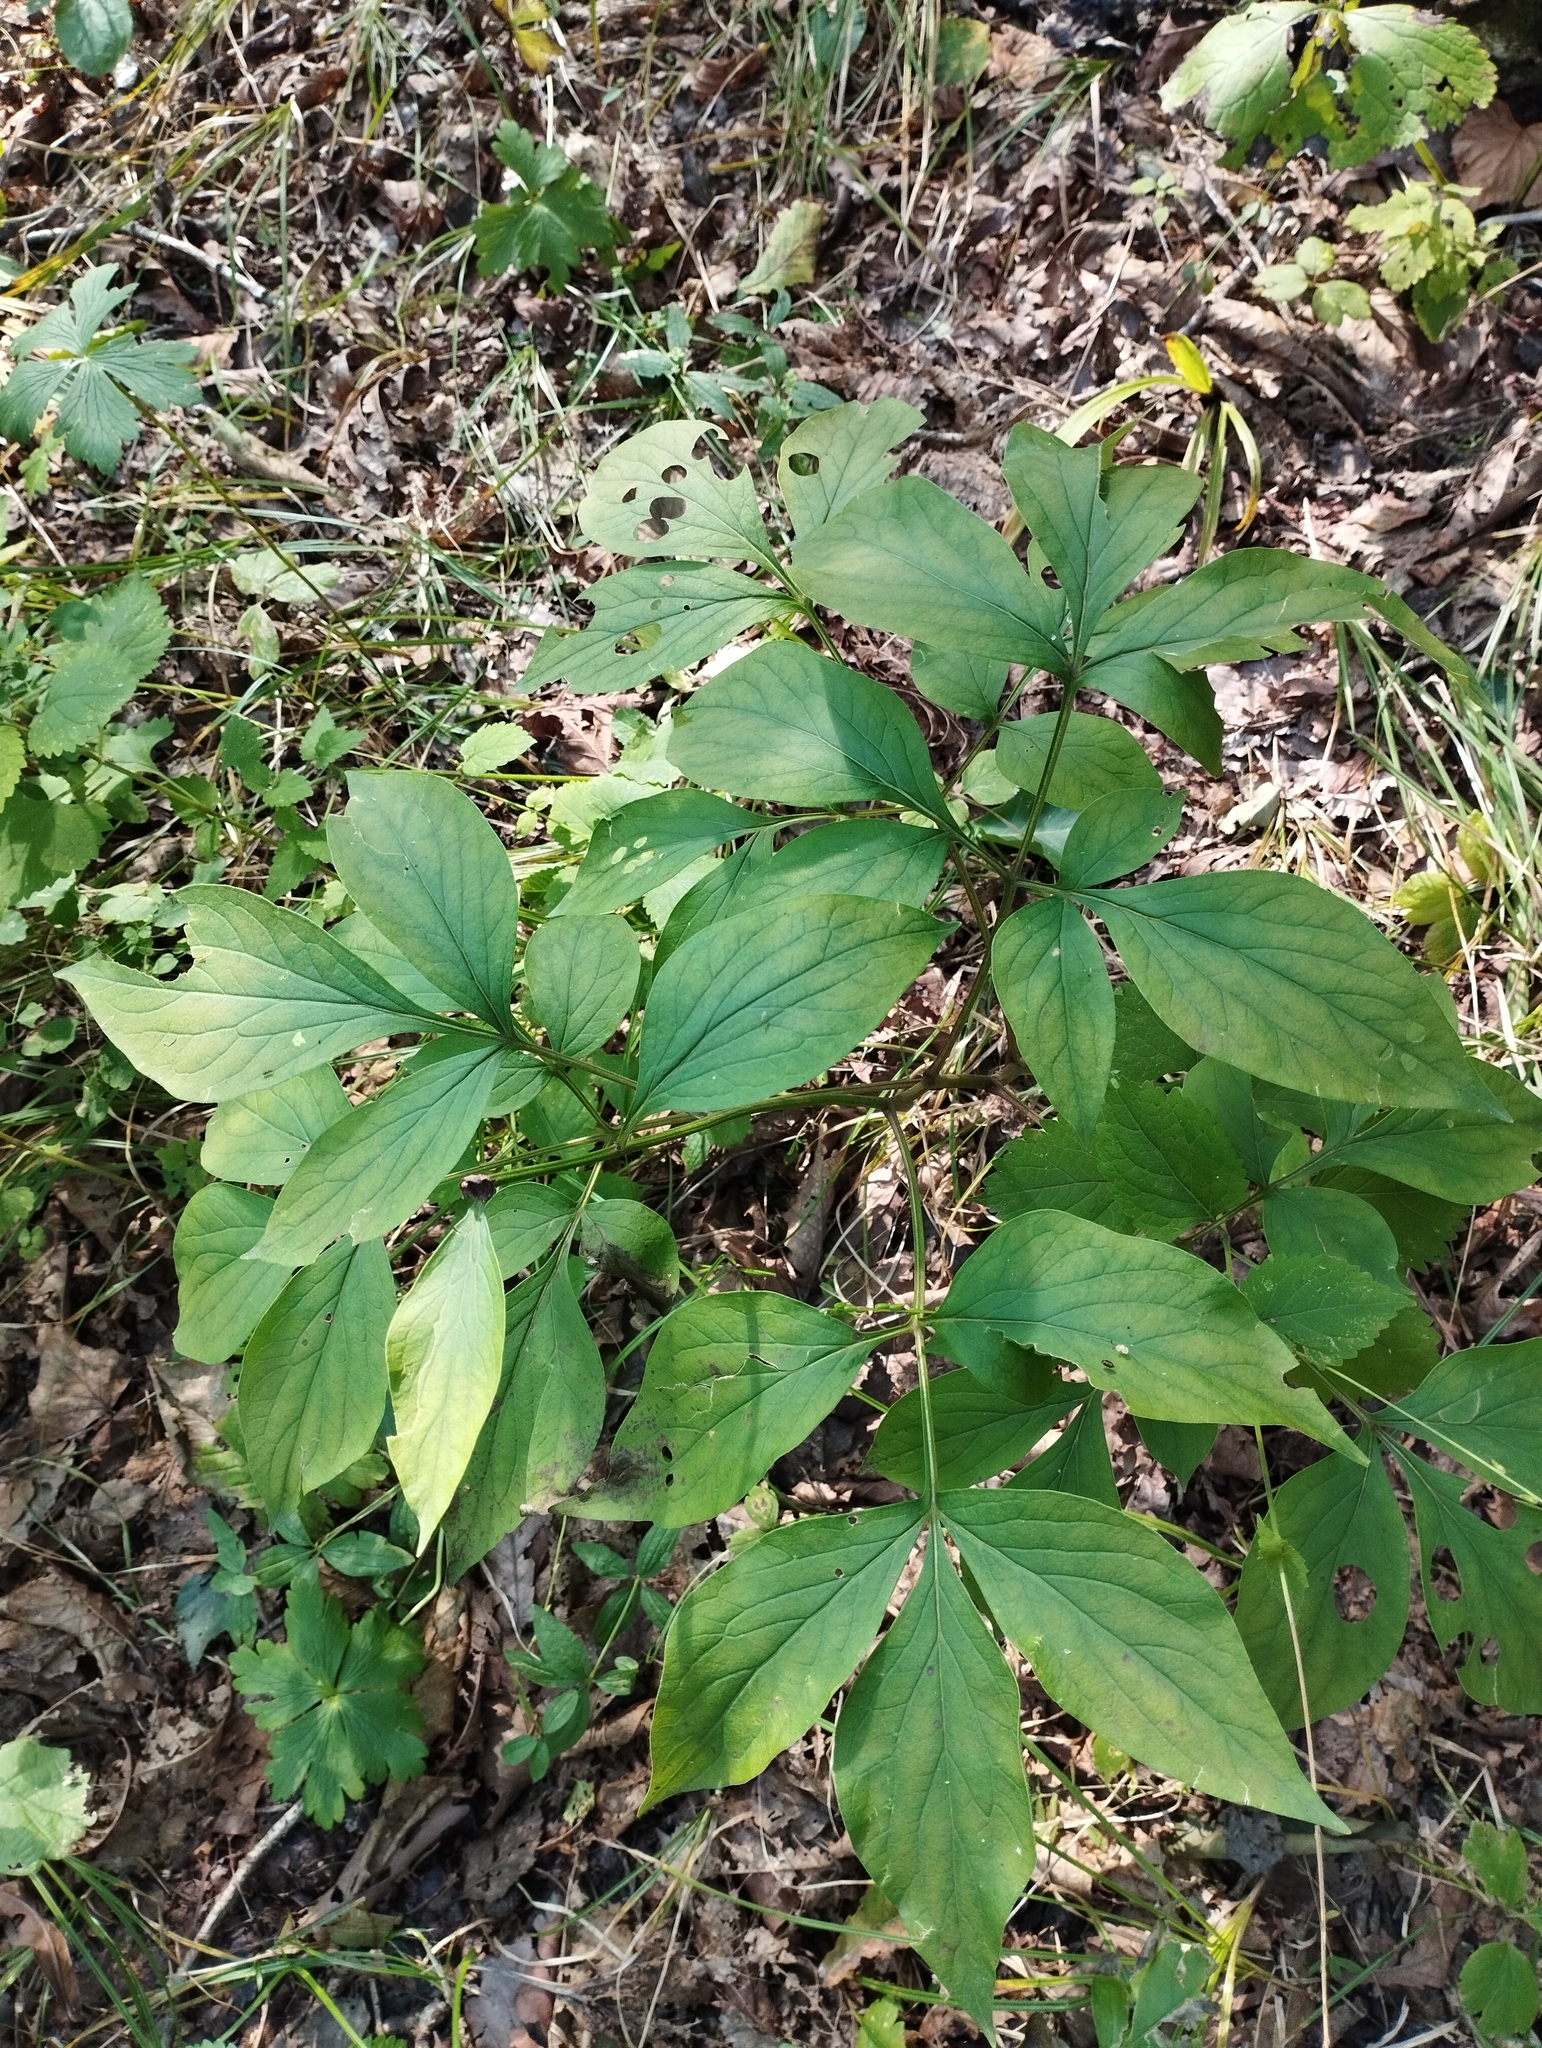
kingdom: Plantae
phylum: Tracheophyta
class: Magnoliopsida
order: Saxifragales
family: Paeoniaceae
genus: Paeonia
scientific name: Paeonia lactiflora
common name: Chinese peony
